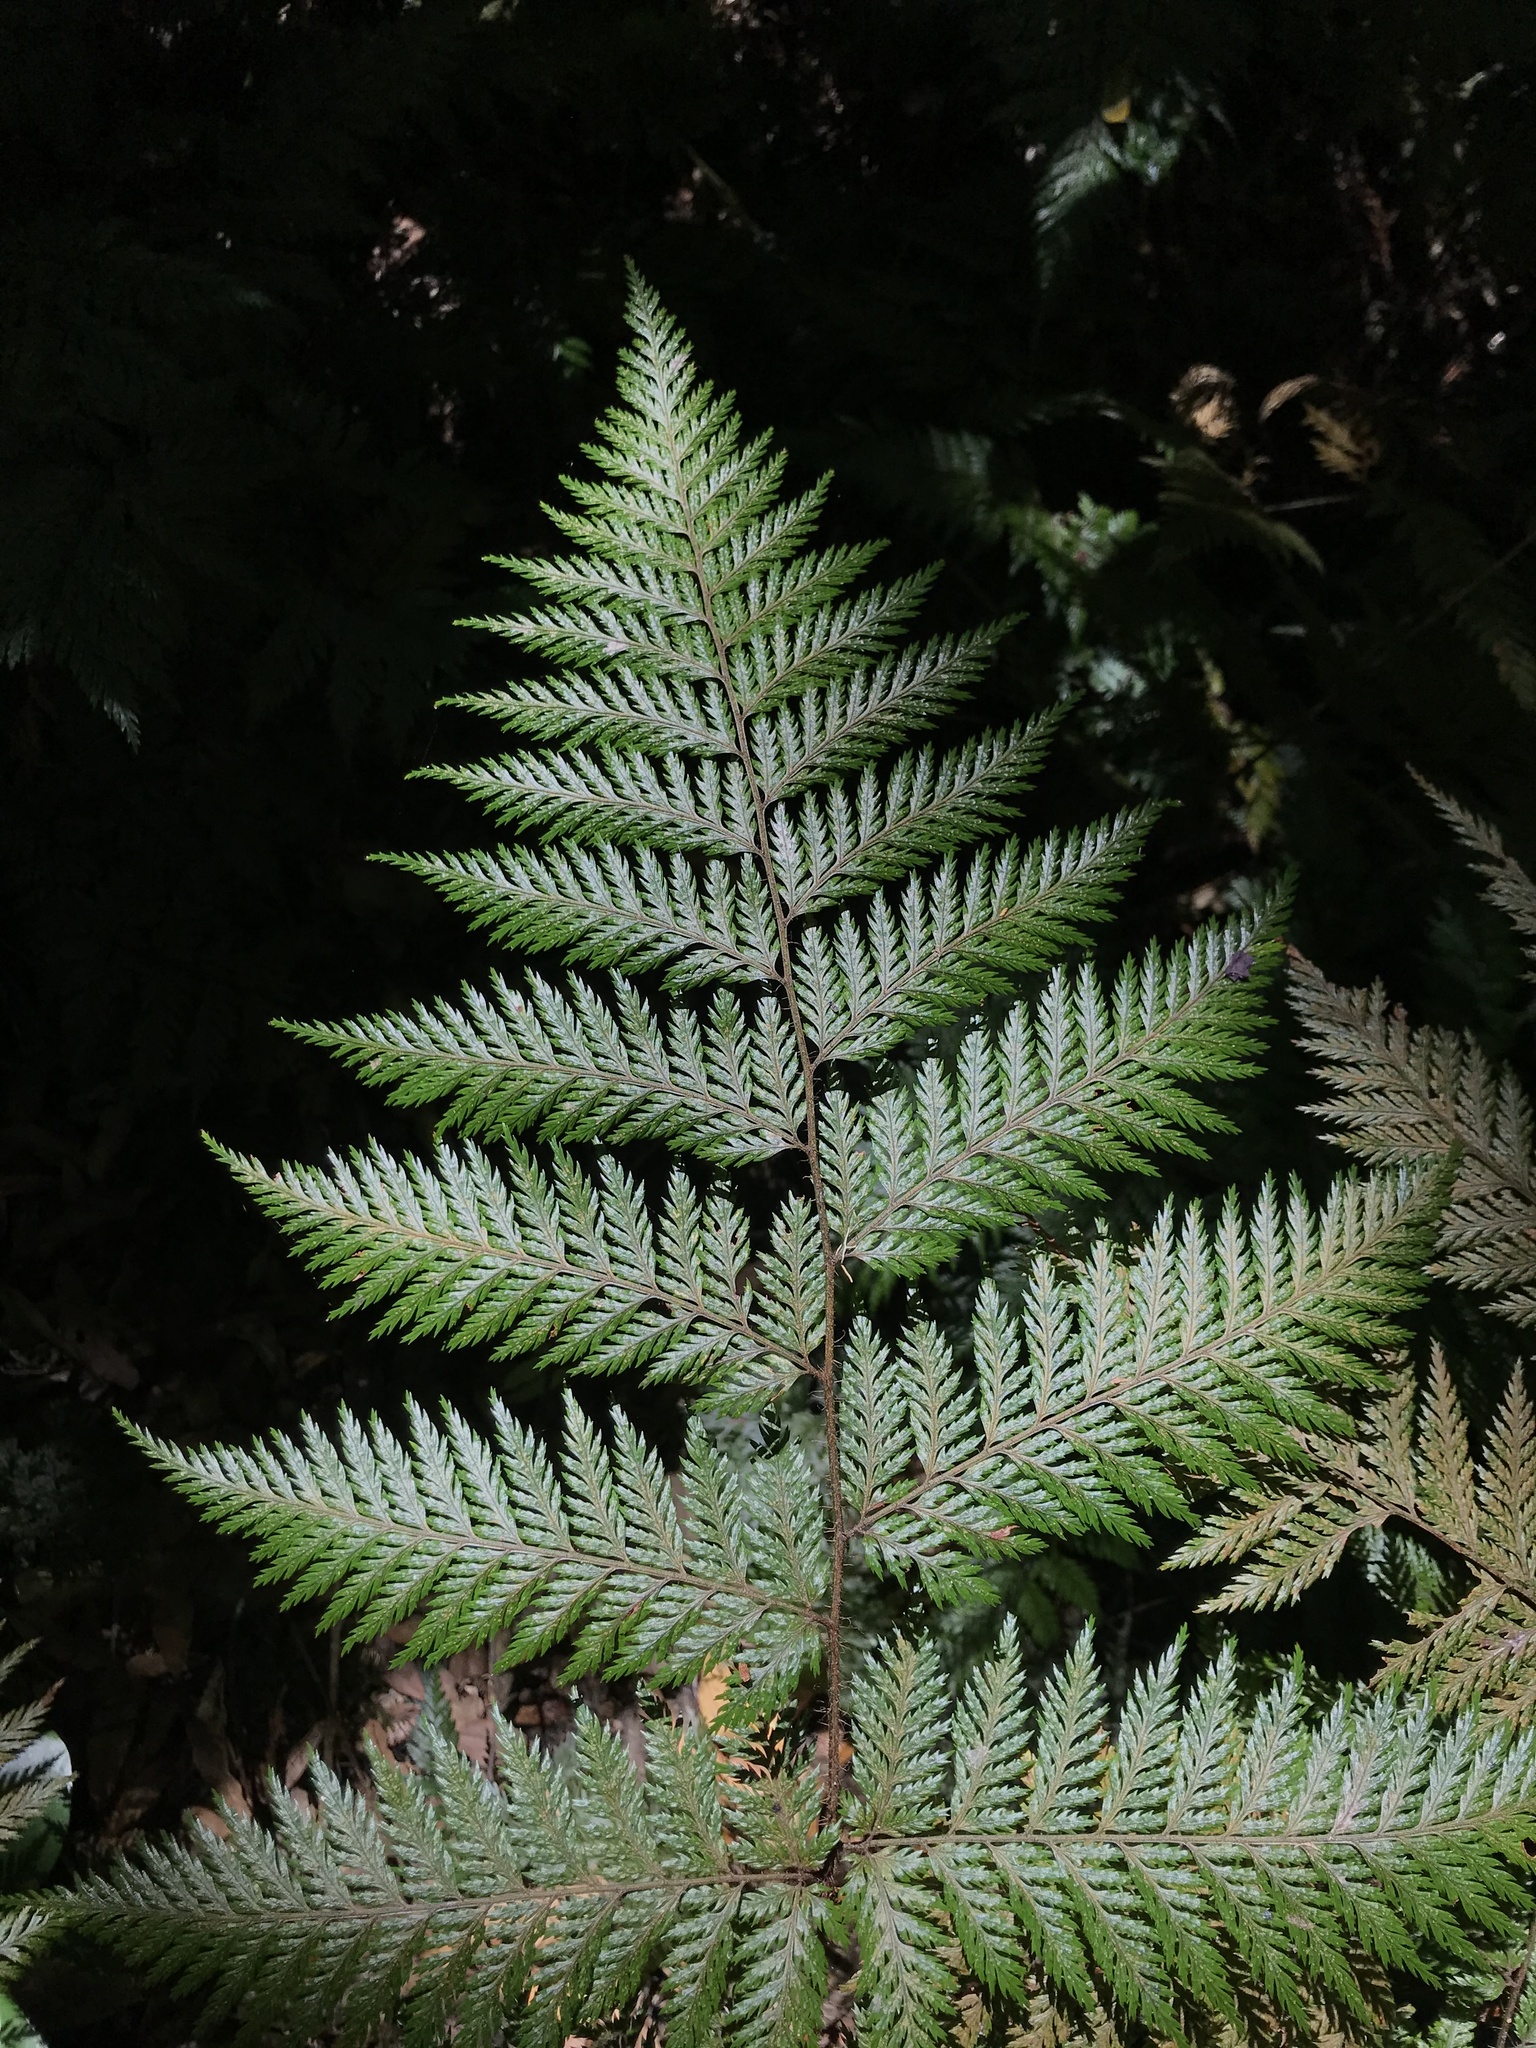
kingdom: Plantae
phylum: Tracheophyta
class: Polypodiopsida
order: Polypodiales
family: Dryopteridaceae
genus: Lastreopsis
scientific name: Lastreopsis hispida
